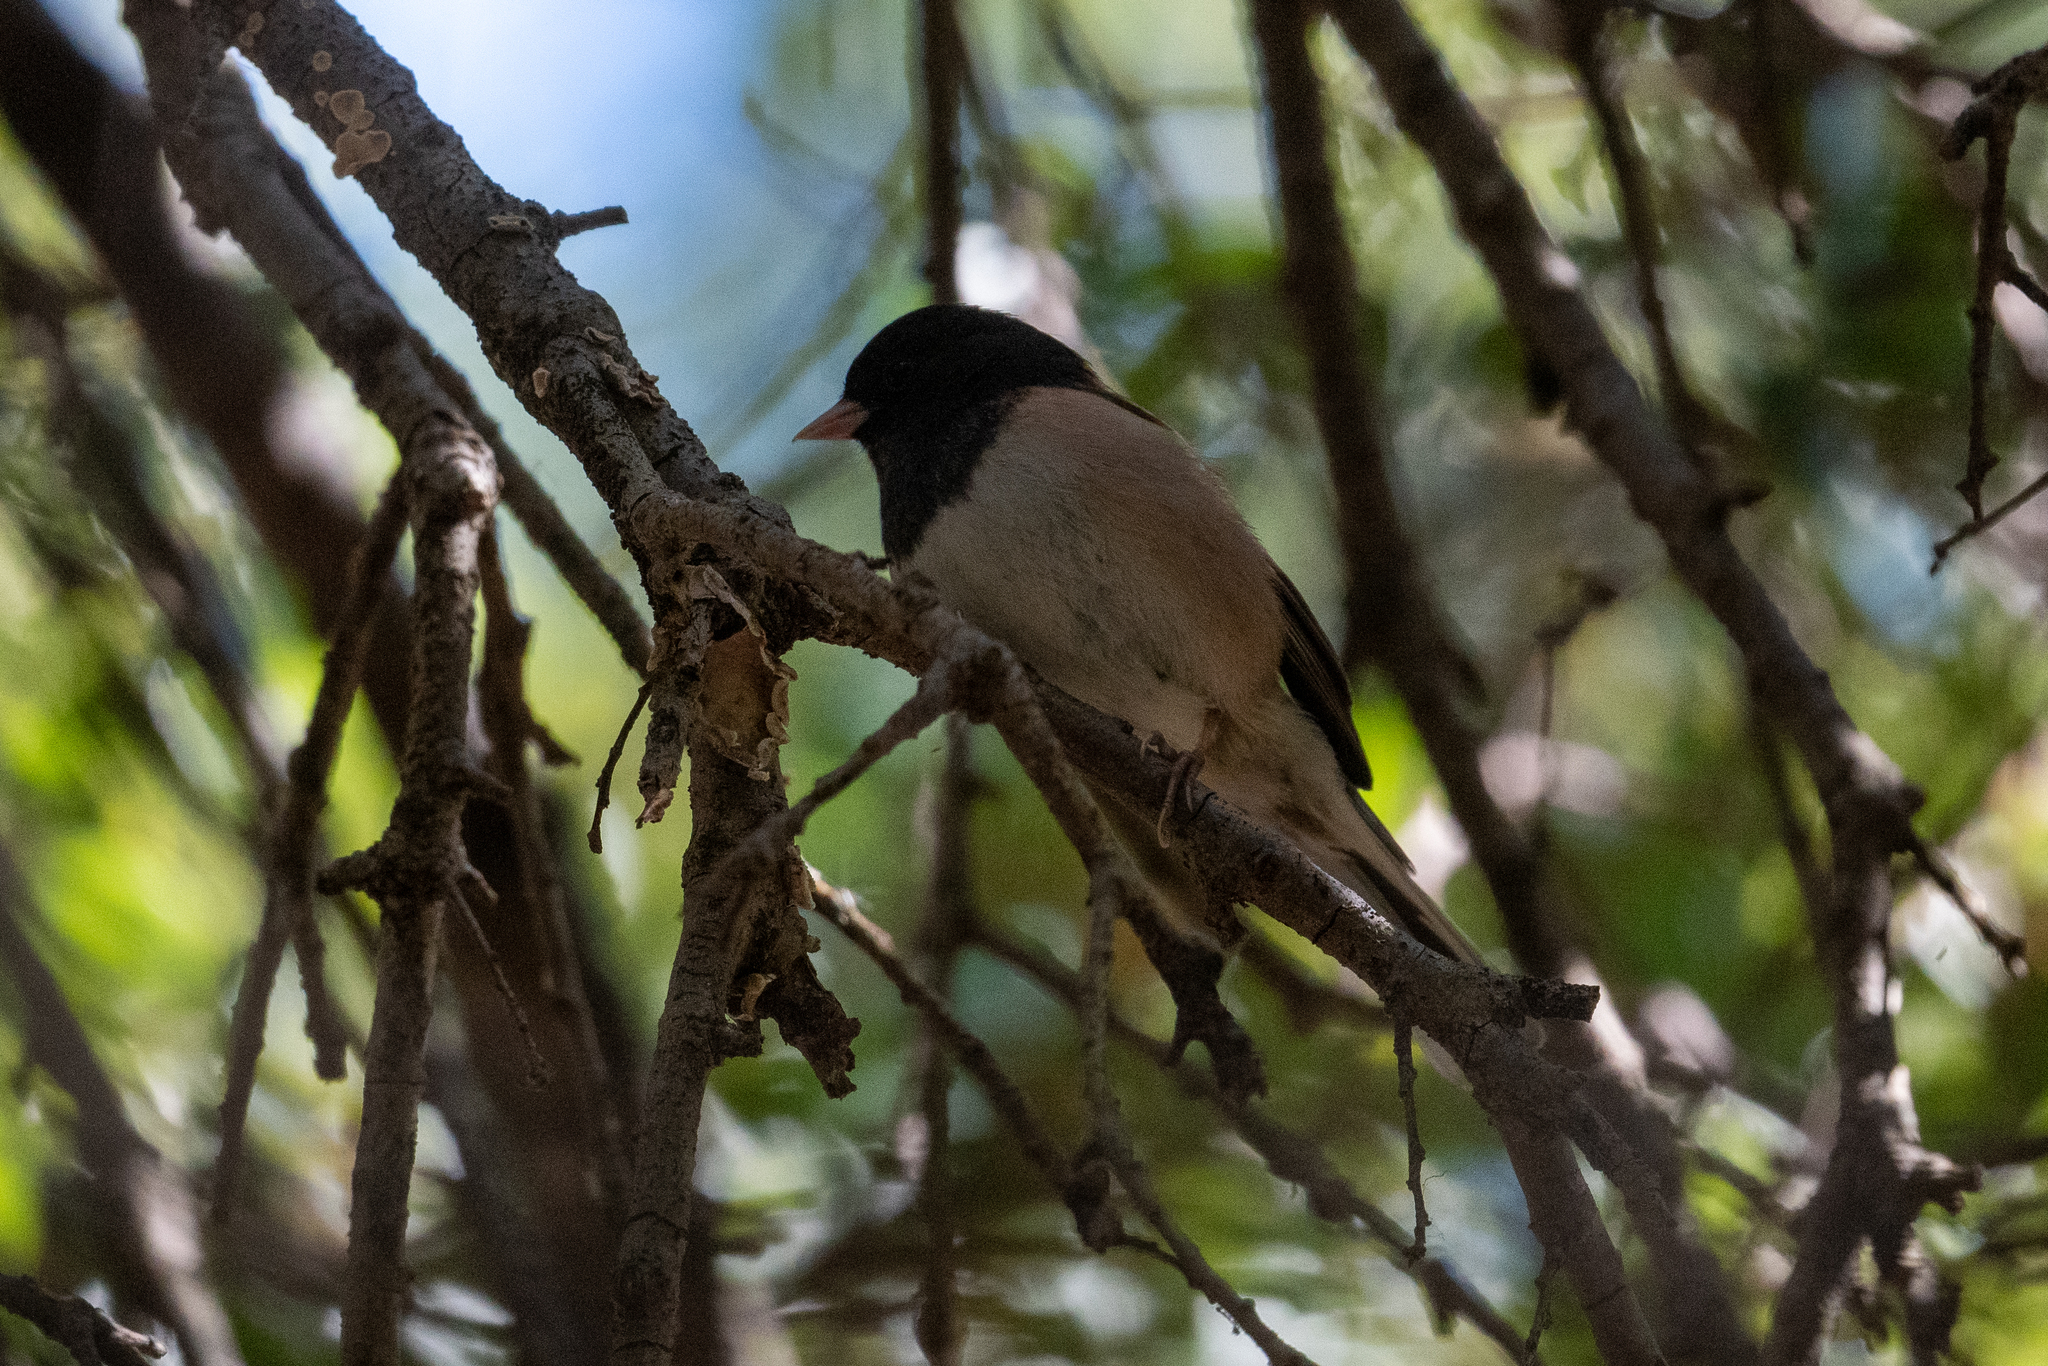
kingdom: Animalia
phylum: Chordata
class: Aves
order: Passeriformes
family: Paridae
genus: Baeolophus
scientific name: Baeolophus inornatus
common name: Oak titmouse
